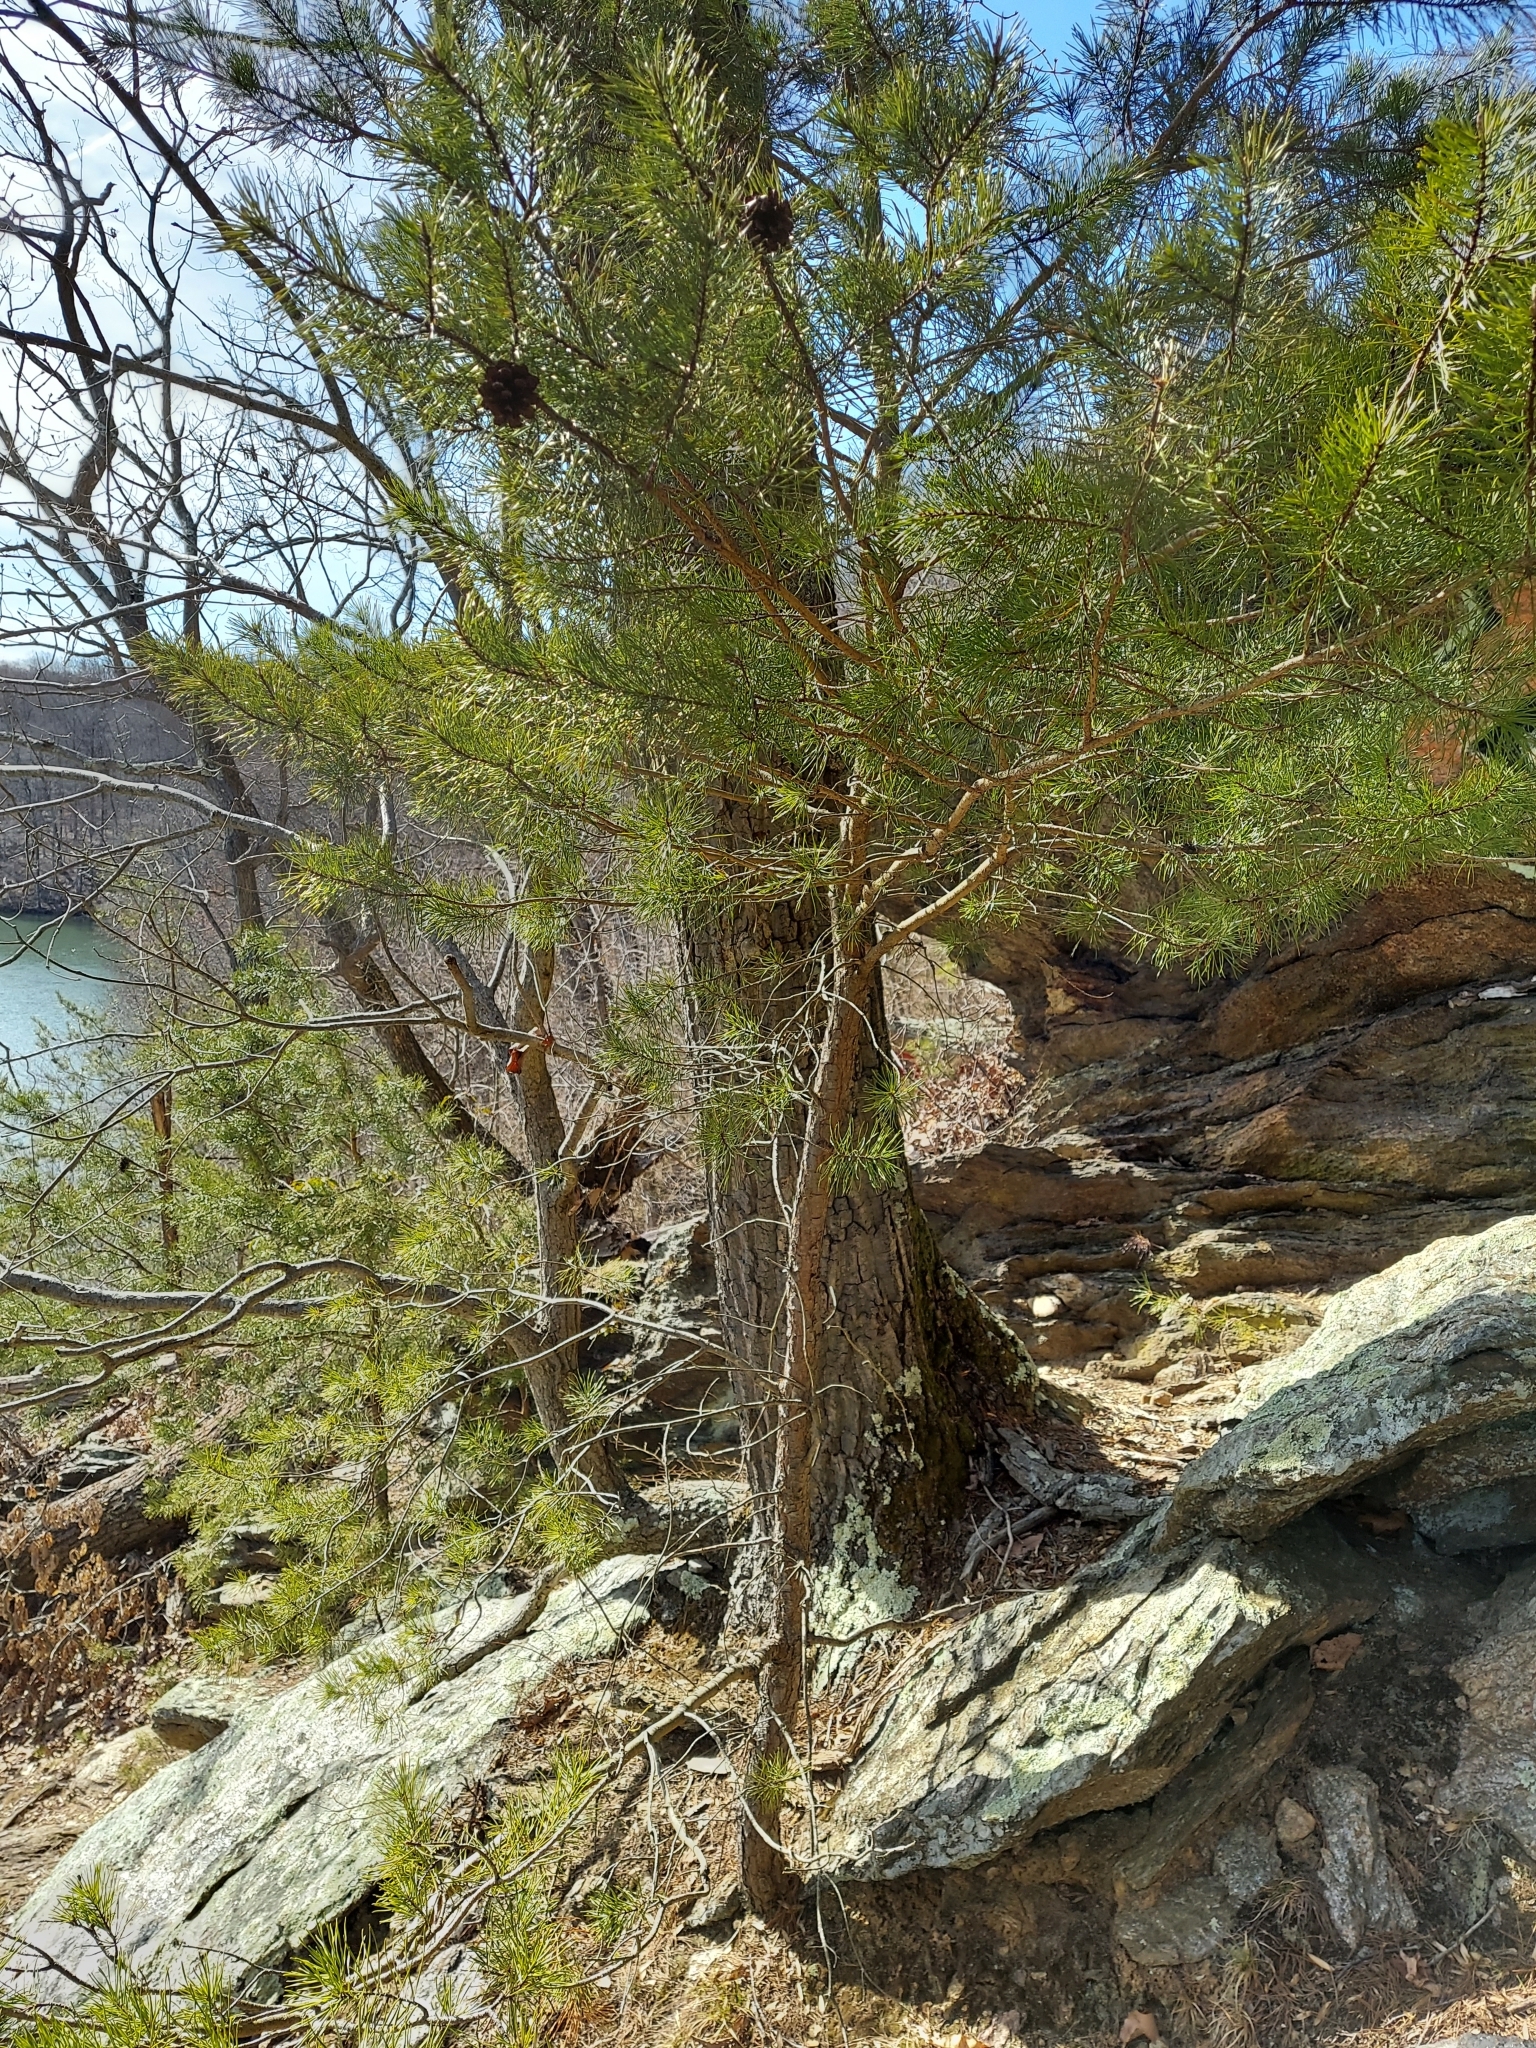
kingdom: Plantae
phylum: Tracheophyta
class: Pinopsida
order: Pinales
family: Pinaceae
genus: Pinus
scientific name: Pinus virginiana
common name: Scrub pine
